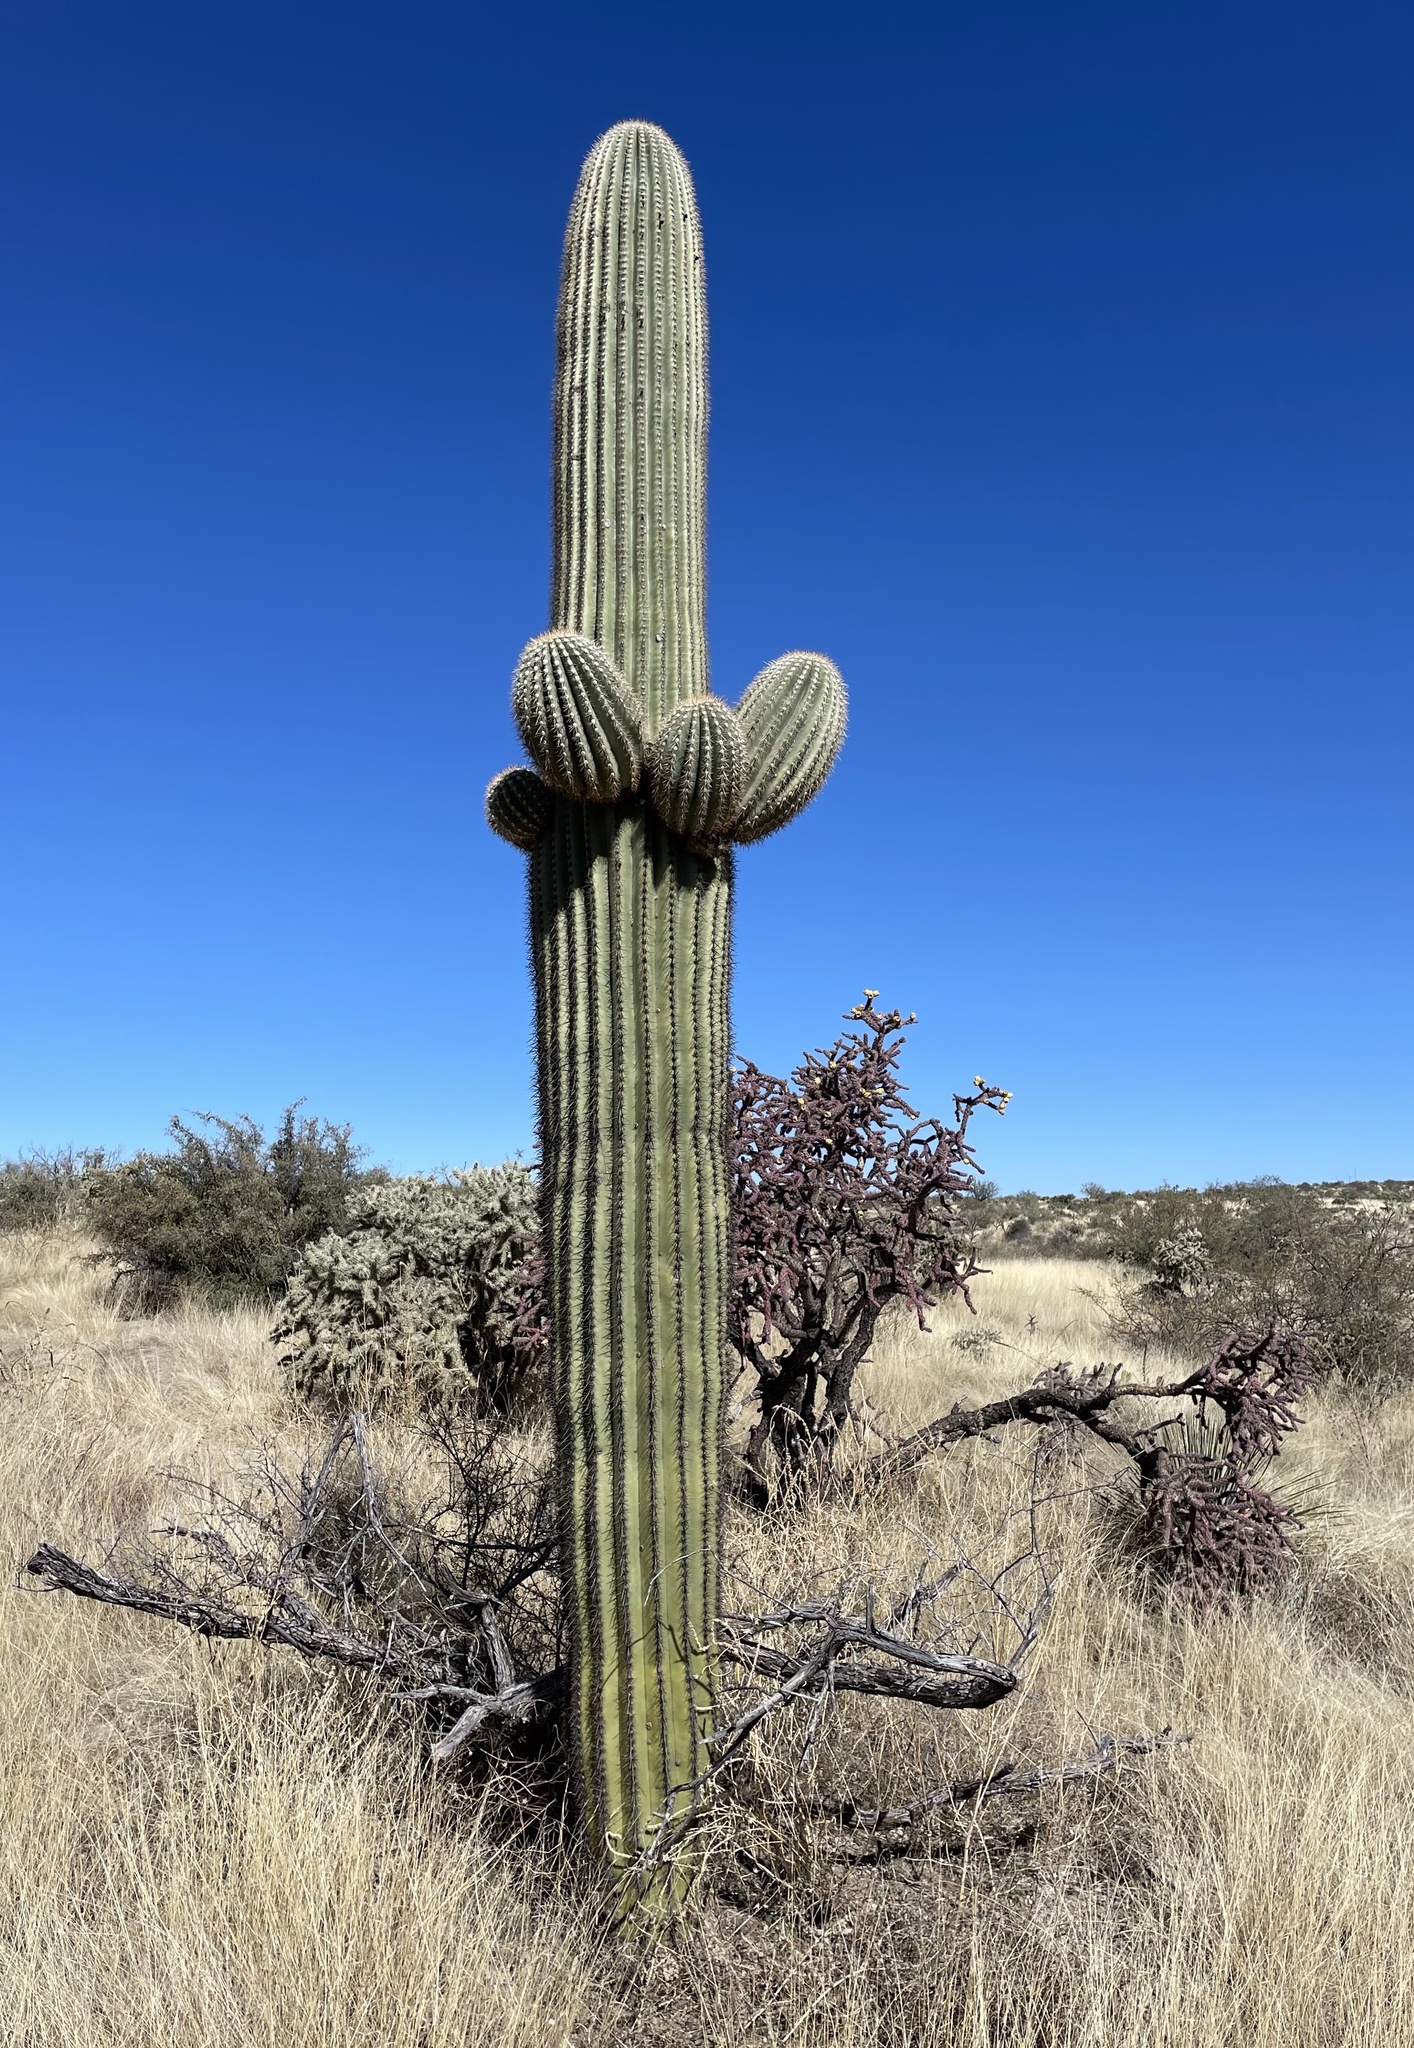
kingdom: Plantae
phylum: Tracheophyta
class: Magnoliopsida
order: Caryophyllales
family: Cactaceae
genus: Carnegiea
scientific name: Carnegiea gigantea
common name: Saguaro
